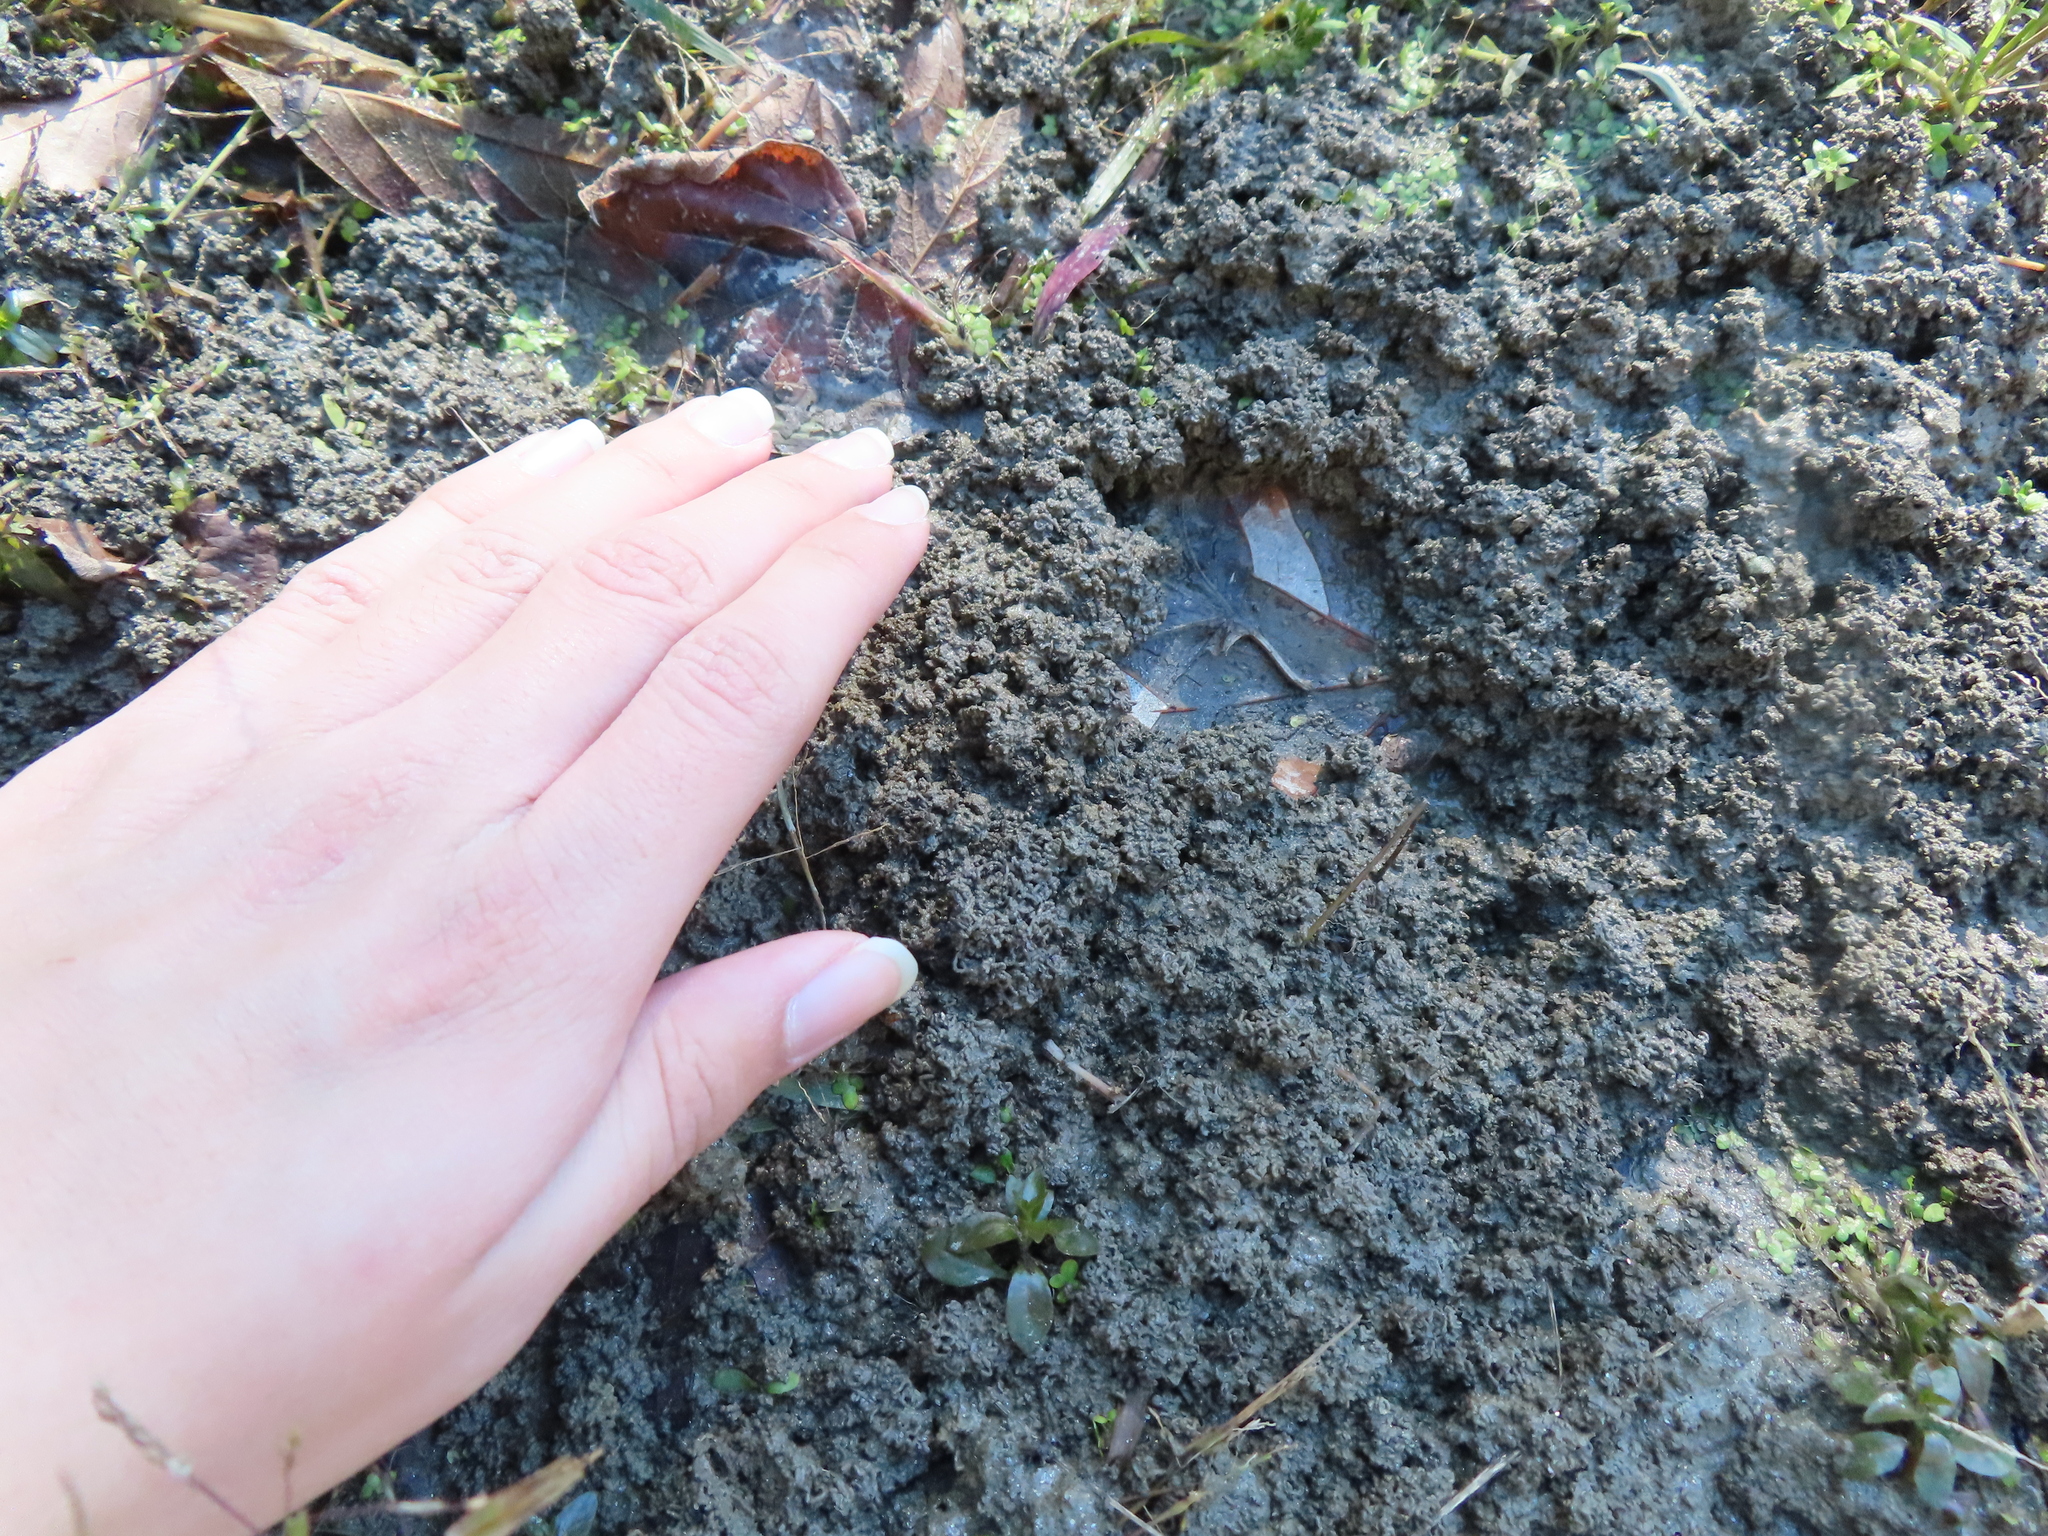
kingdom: Animalia
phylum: Chordata
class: Mammalia
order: Artiodactyla
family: Cervidae
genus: Odocoileus
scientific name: Odocoileus virginianus
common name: White-tailed deer
